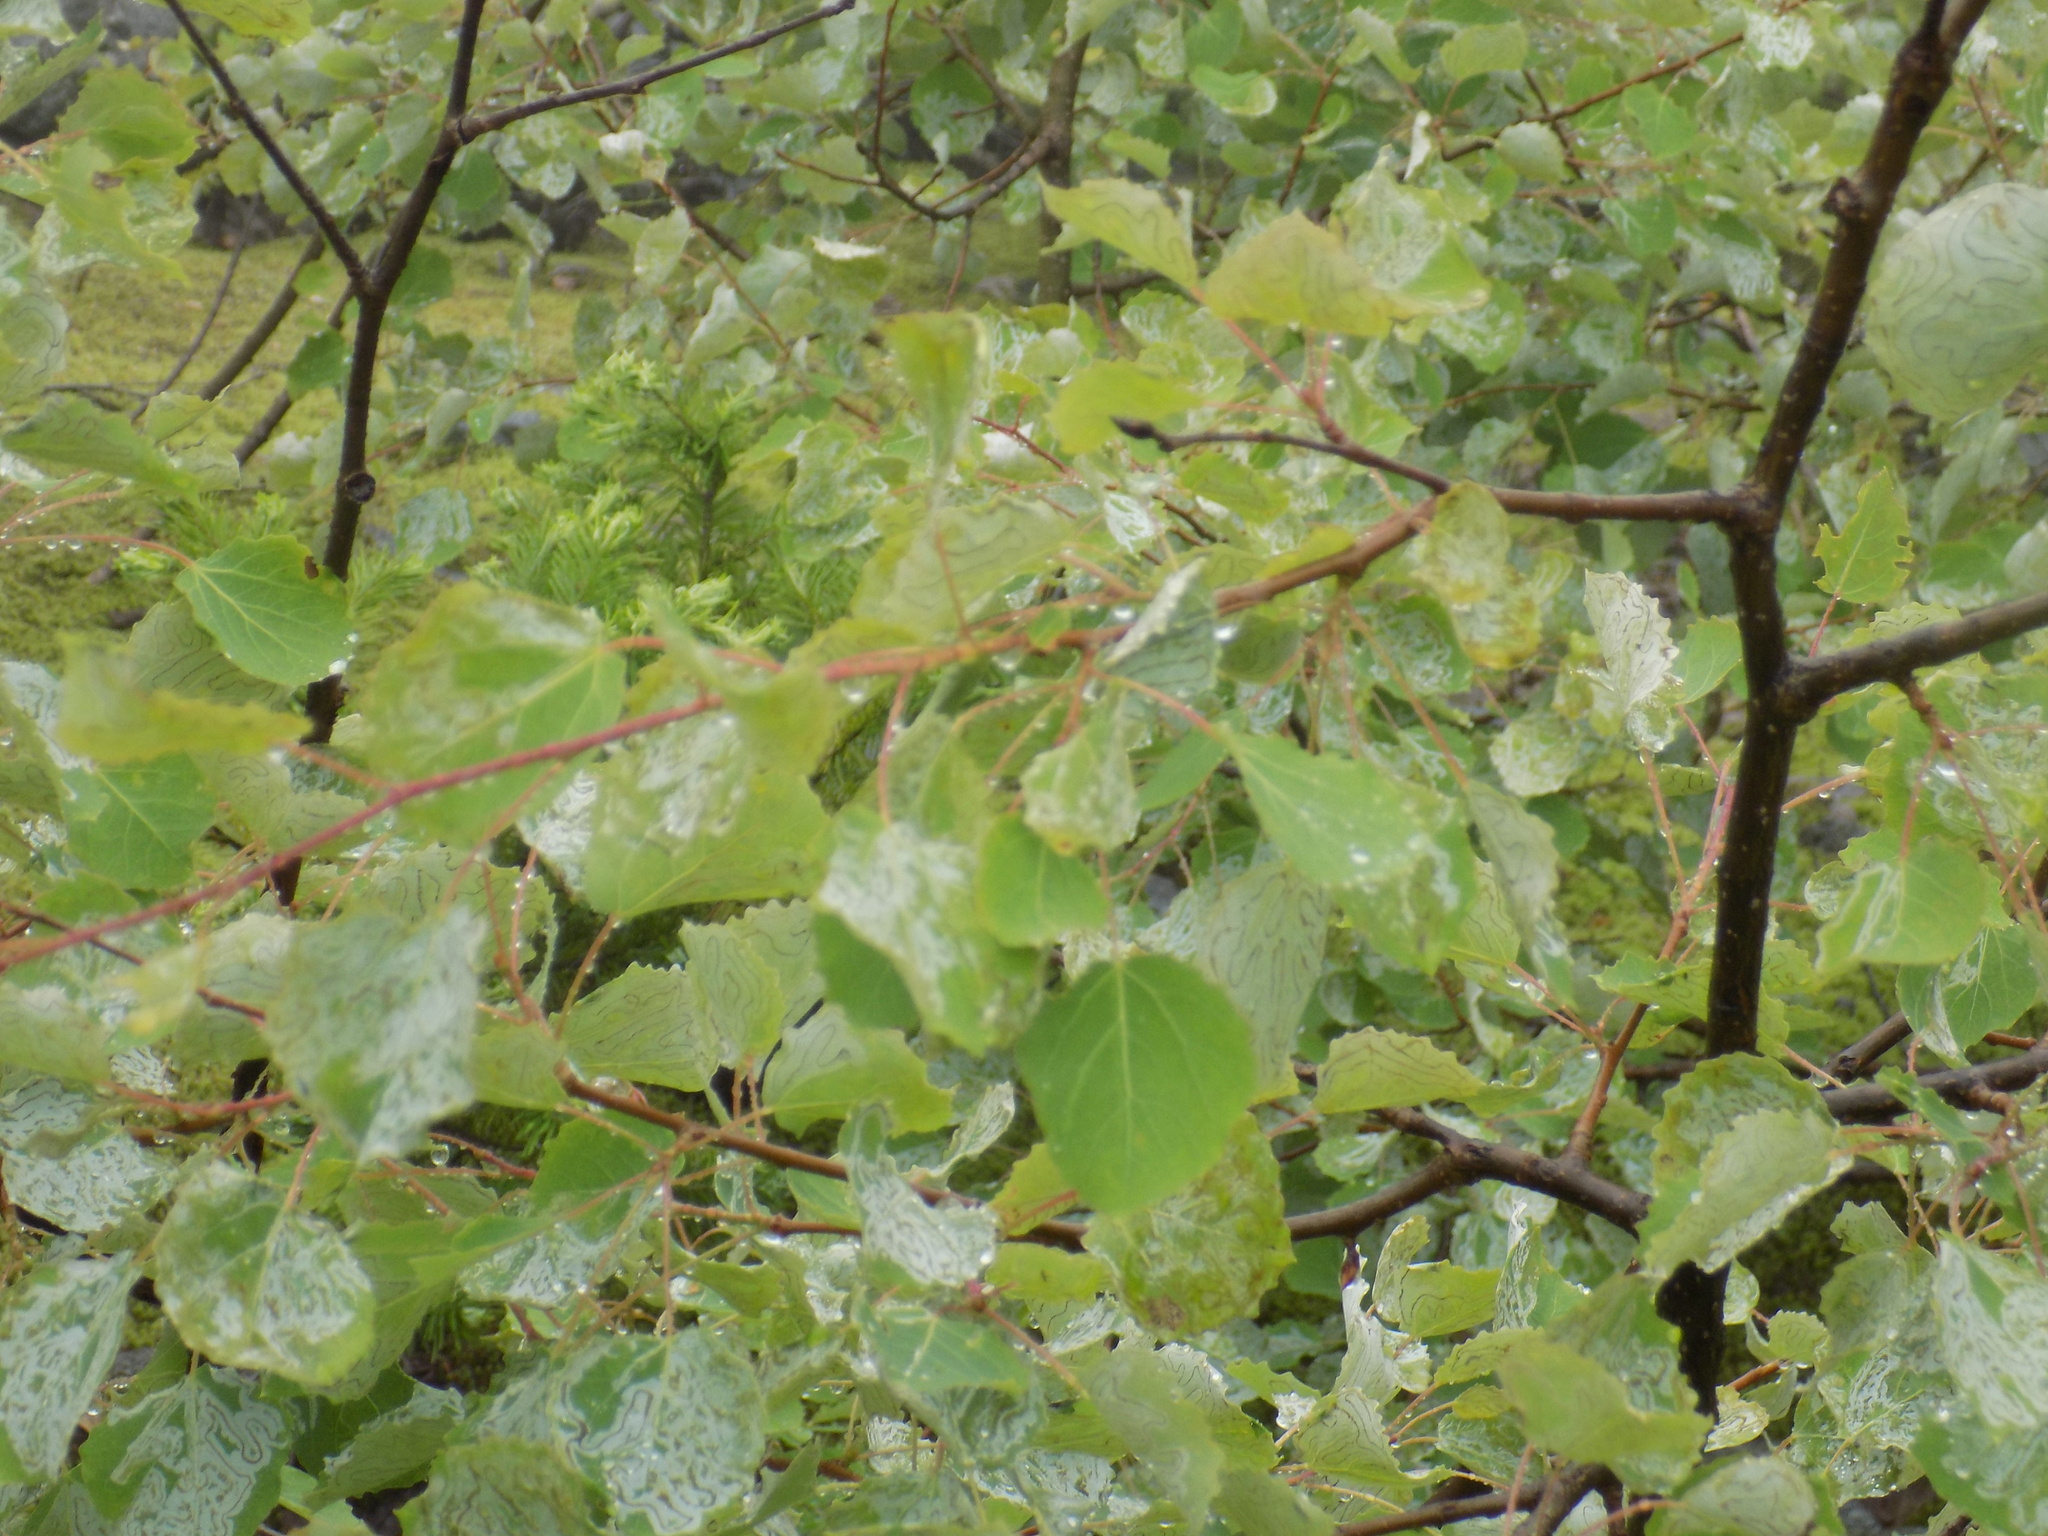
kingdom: Plantae
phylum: Tracheophyta
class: Magnoliopsida
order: Malpighiales
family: Salicaceae
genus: Populus
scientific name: Populus tremula
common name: European aspen
